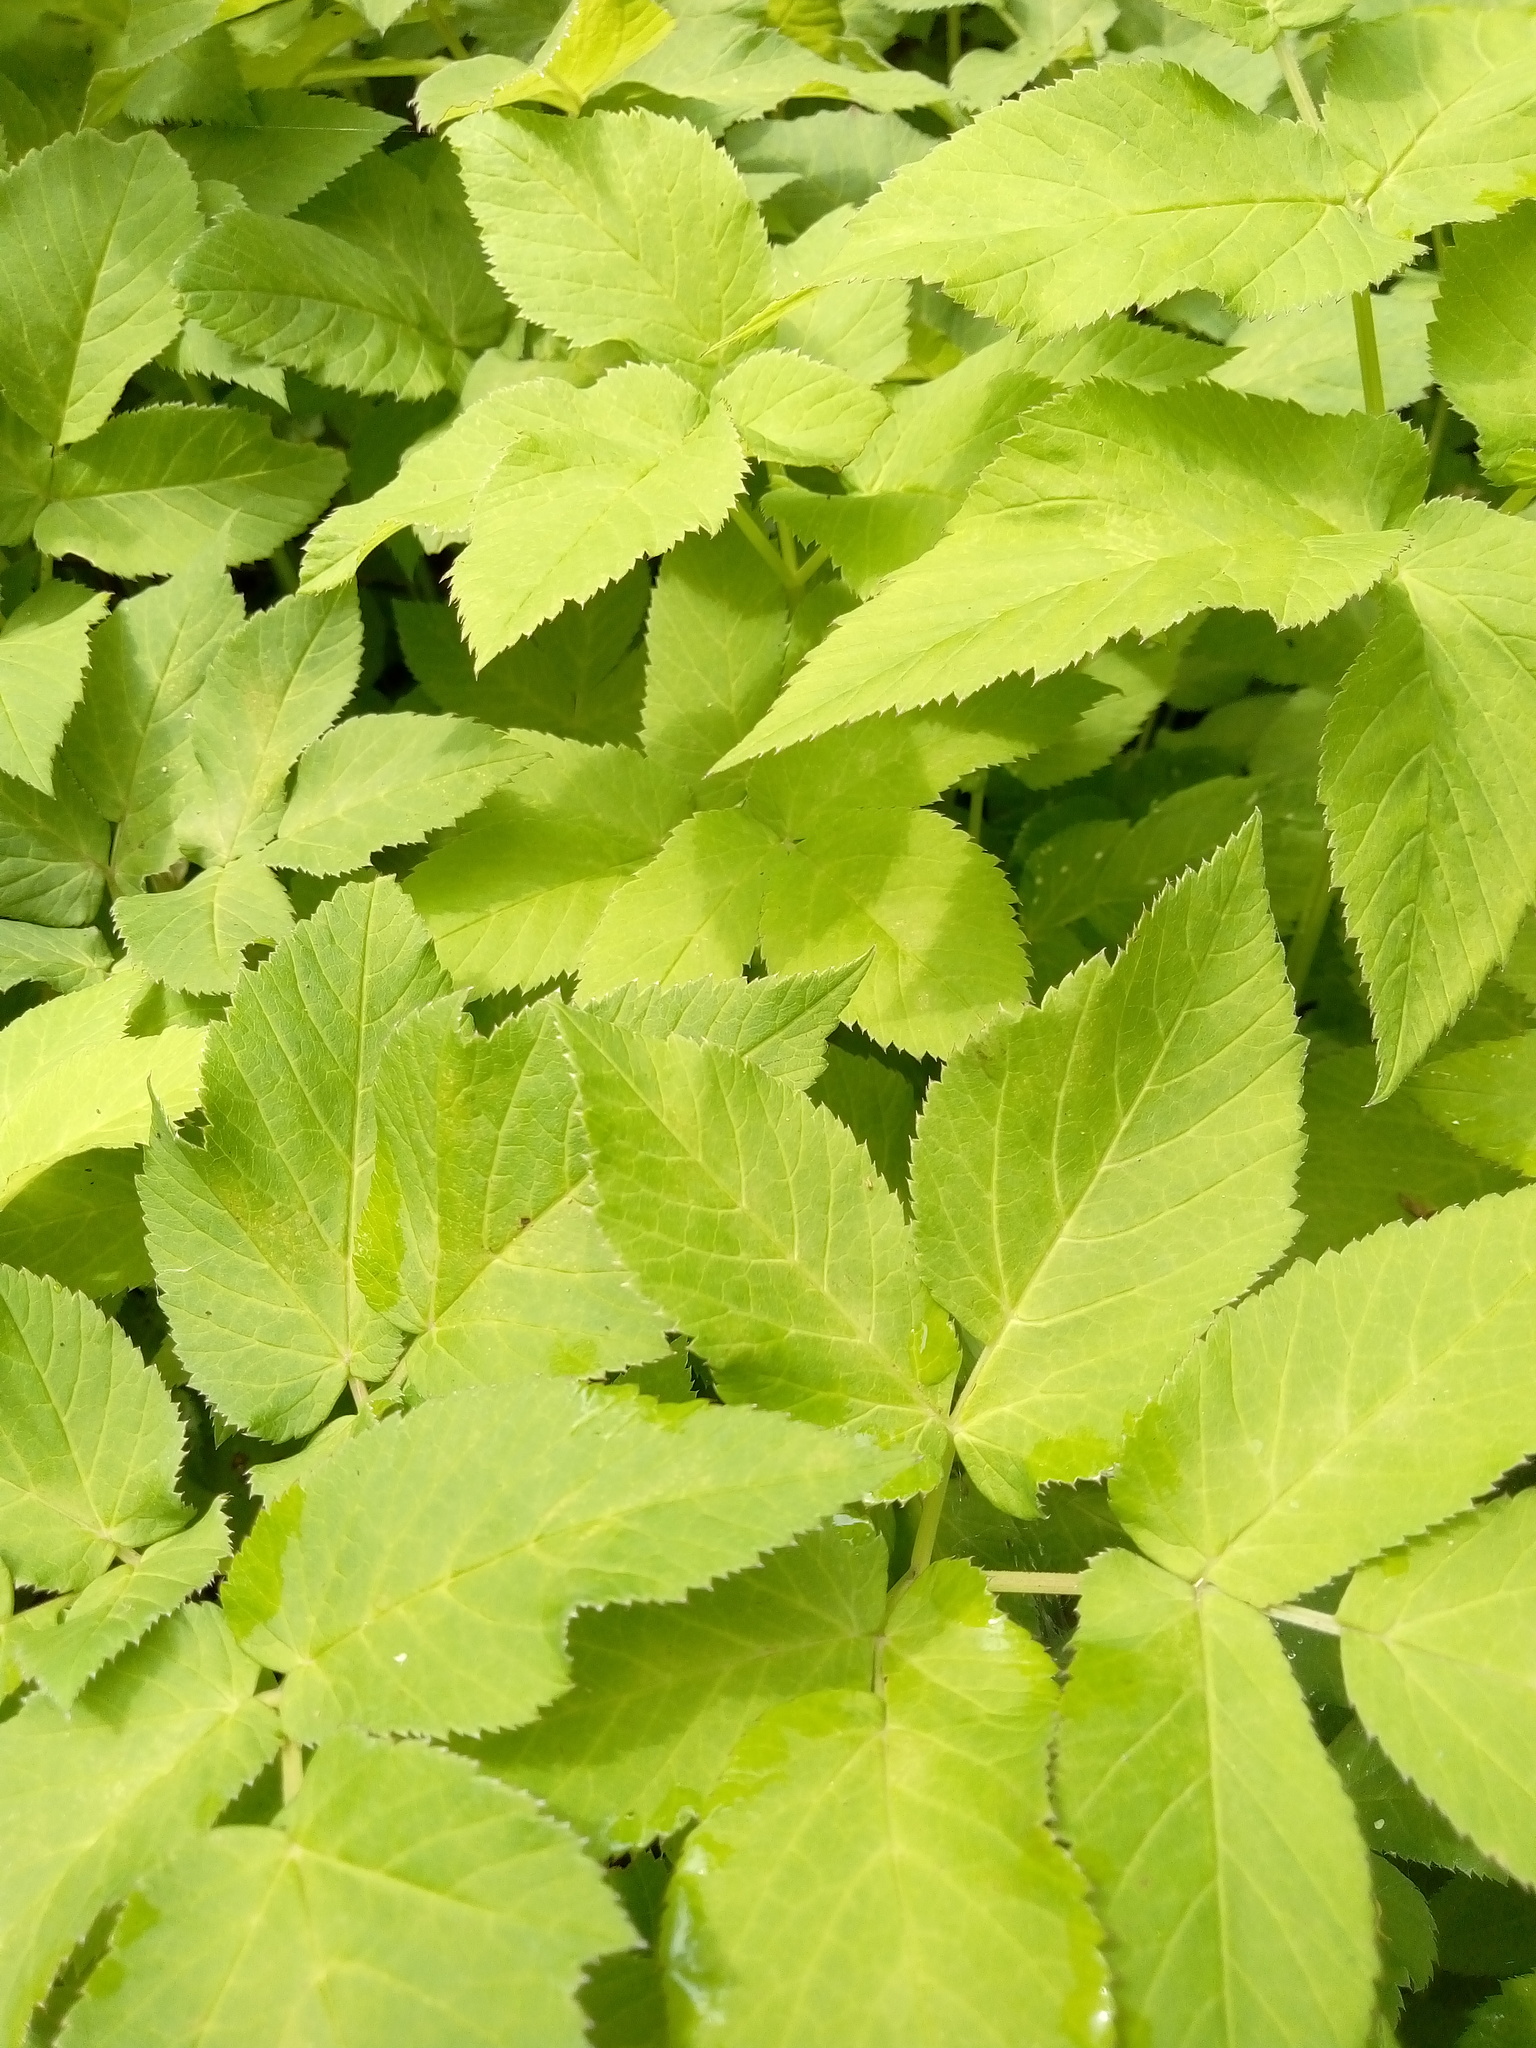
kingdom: Plantae
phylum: Tracheophyta
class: Magnoliopsida
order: Apiales
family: Apiaceae
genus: Aegopodium
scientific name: Aegopodium podagraria
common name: Ground-elder
